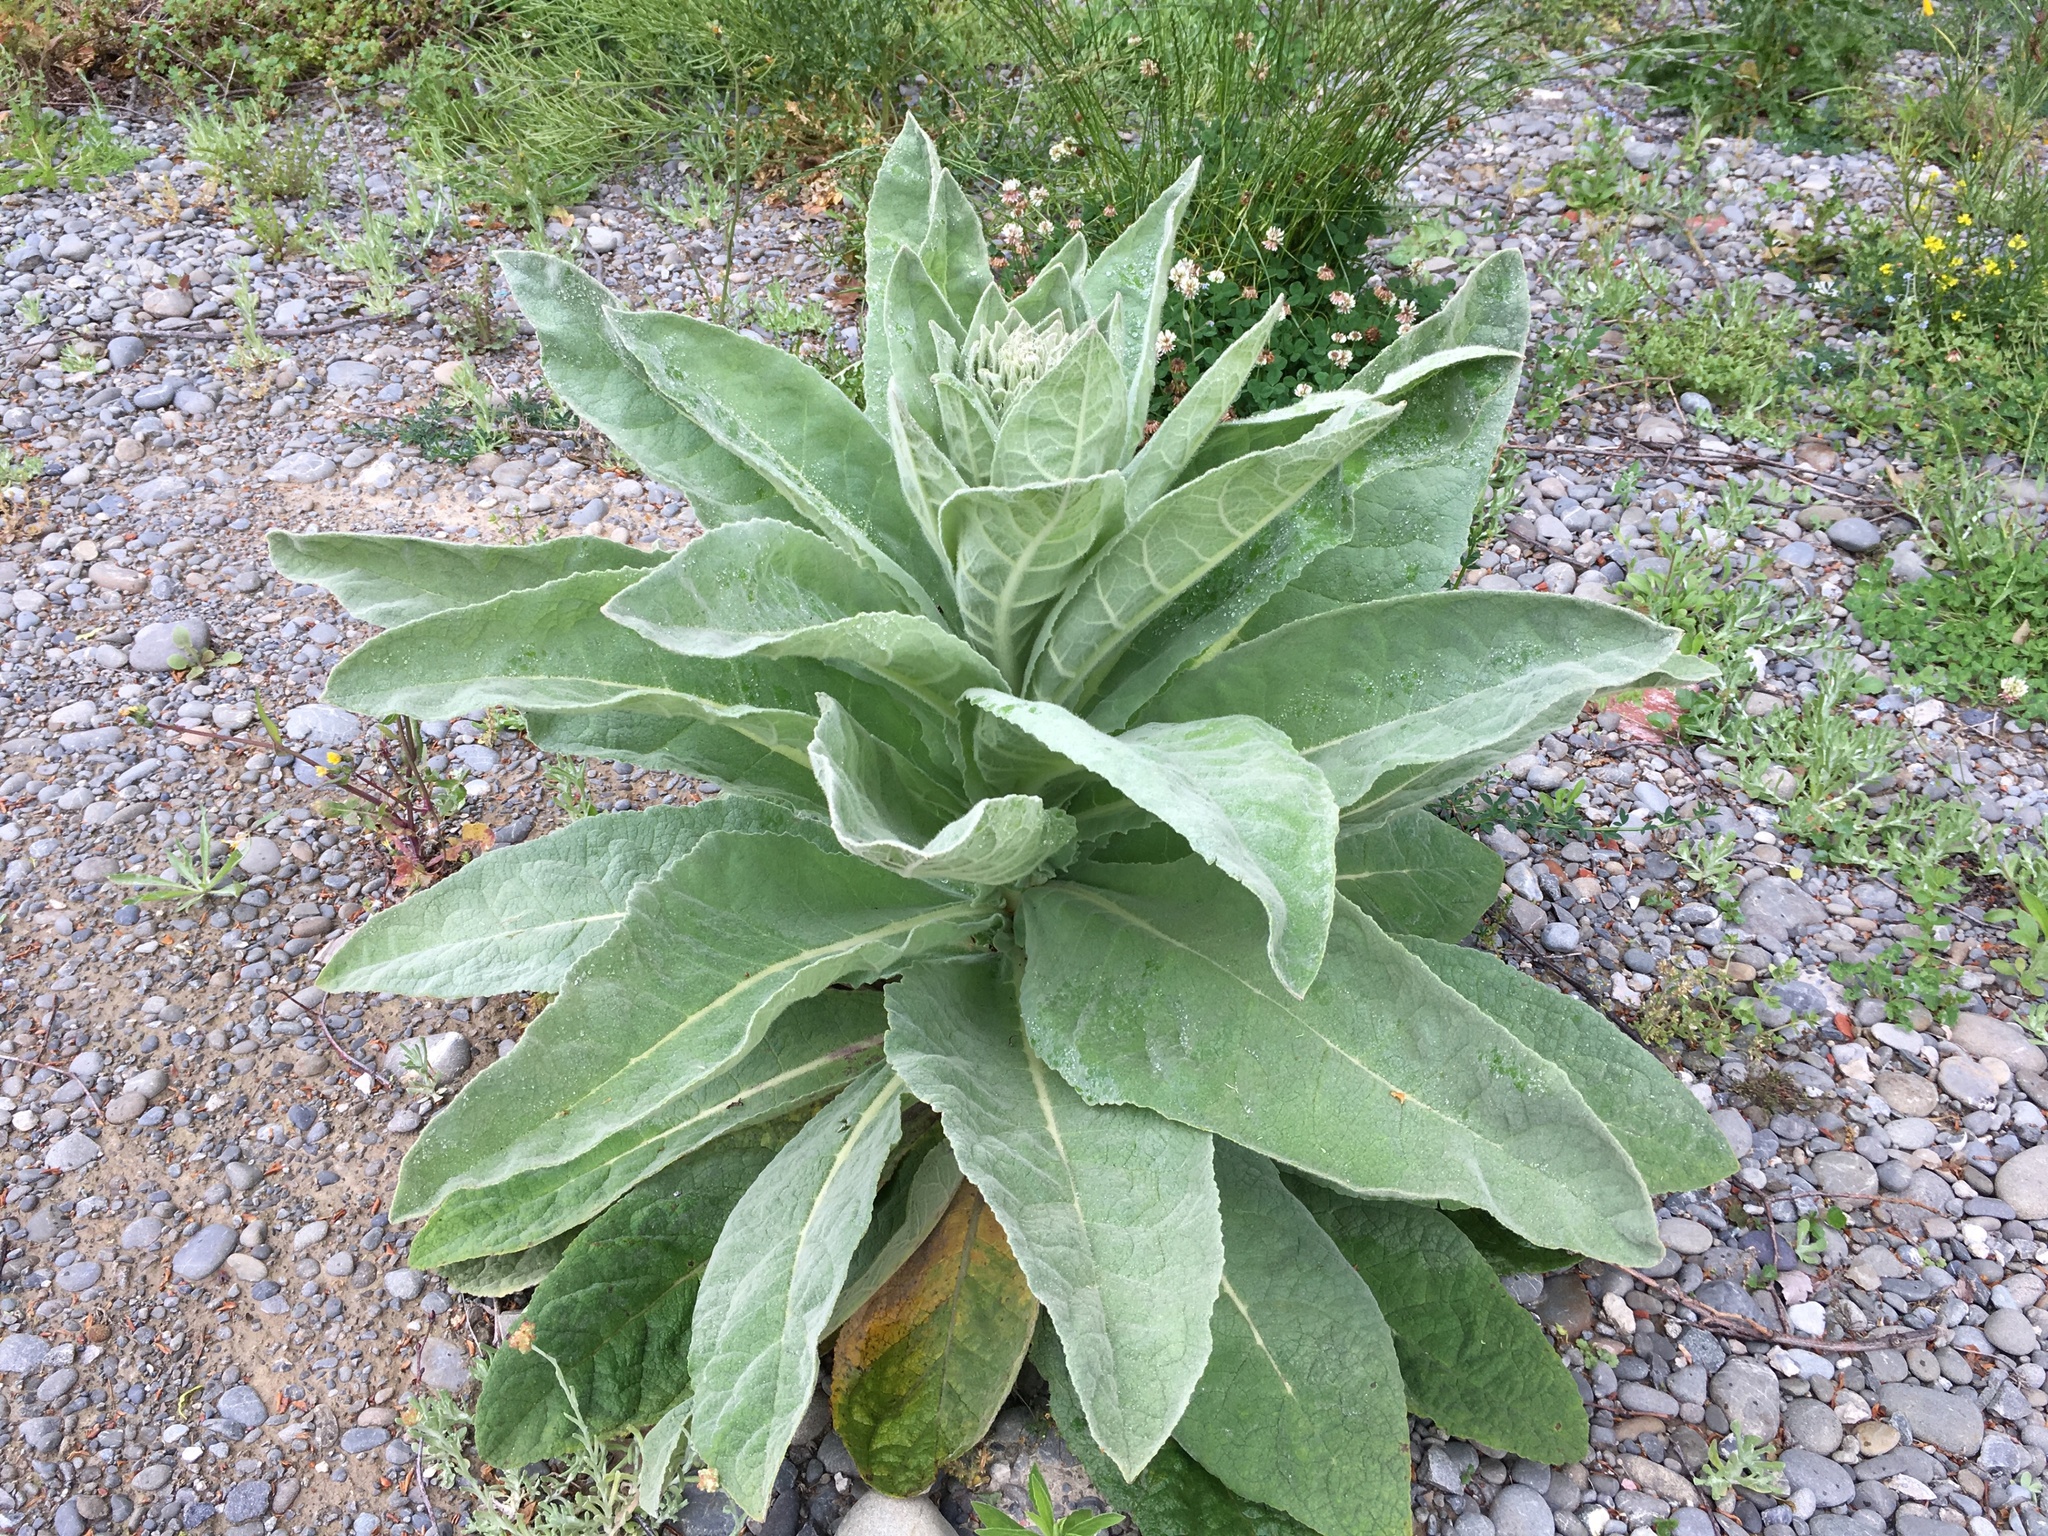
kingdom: Plantae
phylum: Tracheophyta
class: Magnoliopsida
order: Lamiales
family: Scrophulariaceae
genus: Verbascum
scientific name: Verbascum thapsus
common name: Common mullein
